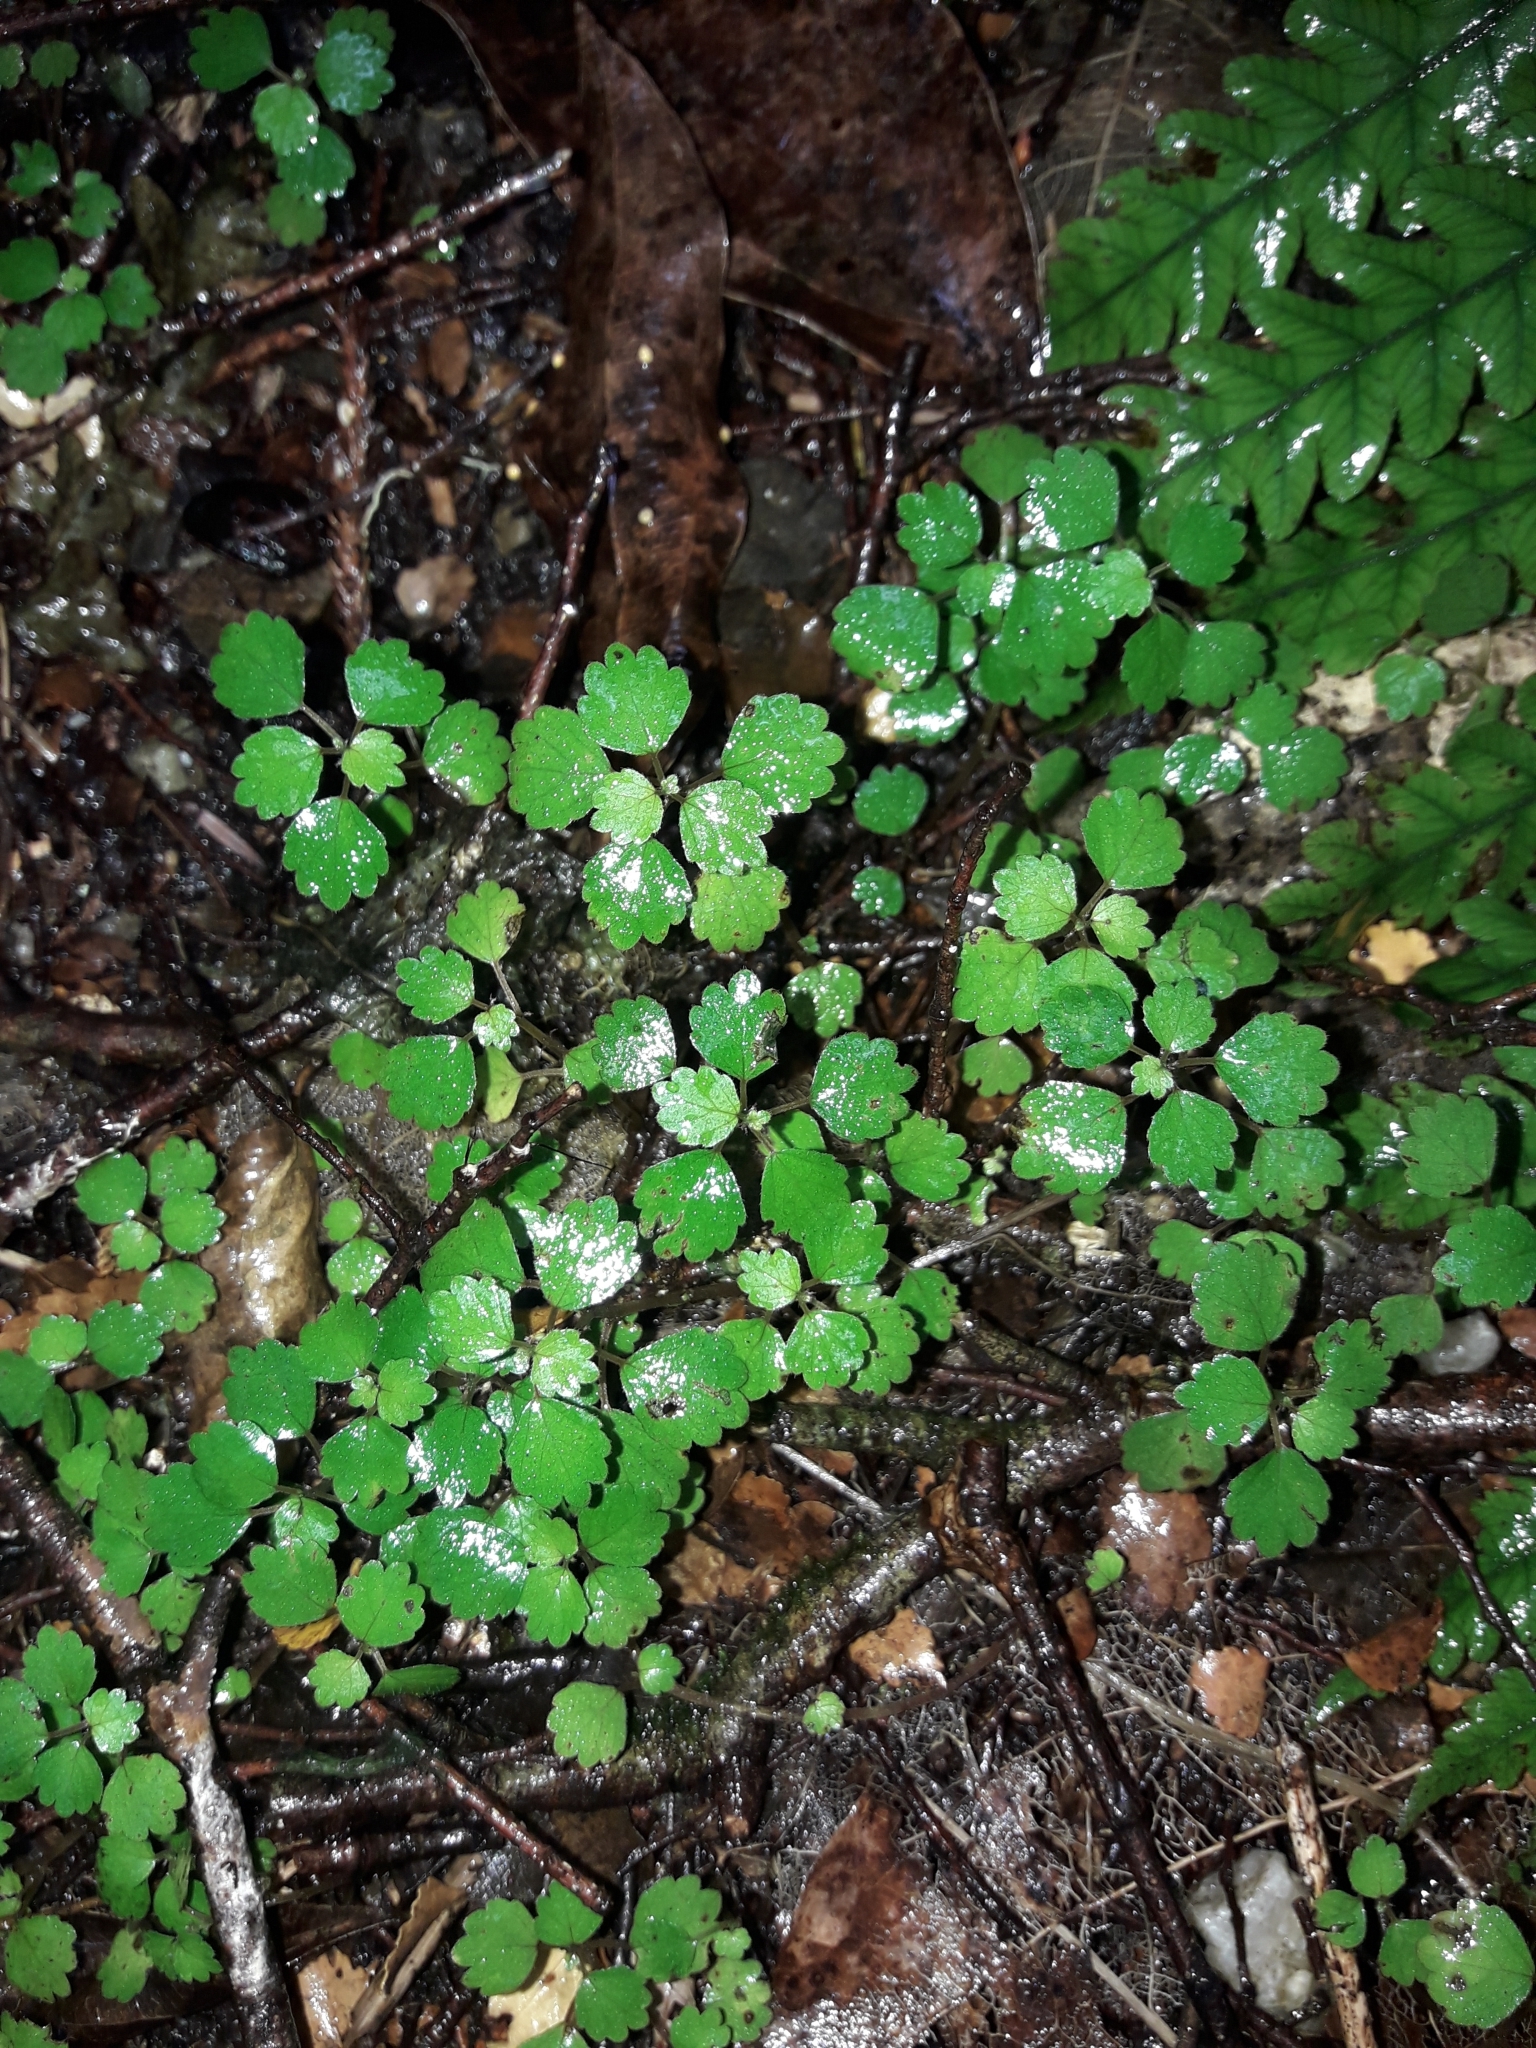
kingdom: Plantae
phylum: Tracheophyta
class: Magnoliopsida
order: Rosales
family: Urticaceae
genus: Australina
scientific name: Australina pusilla
